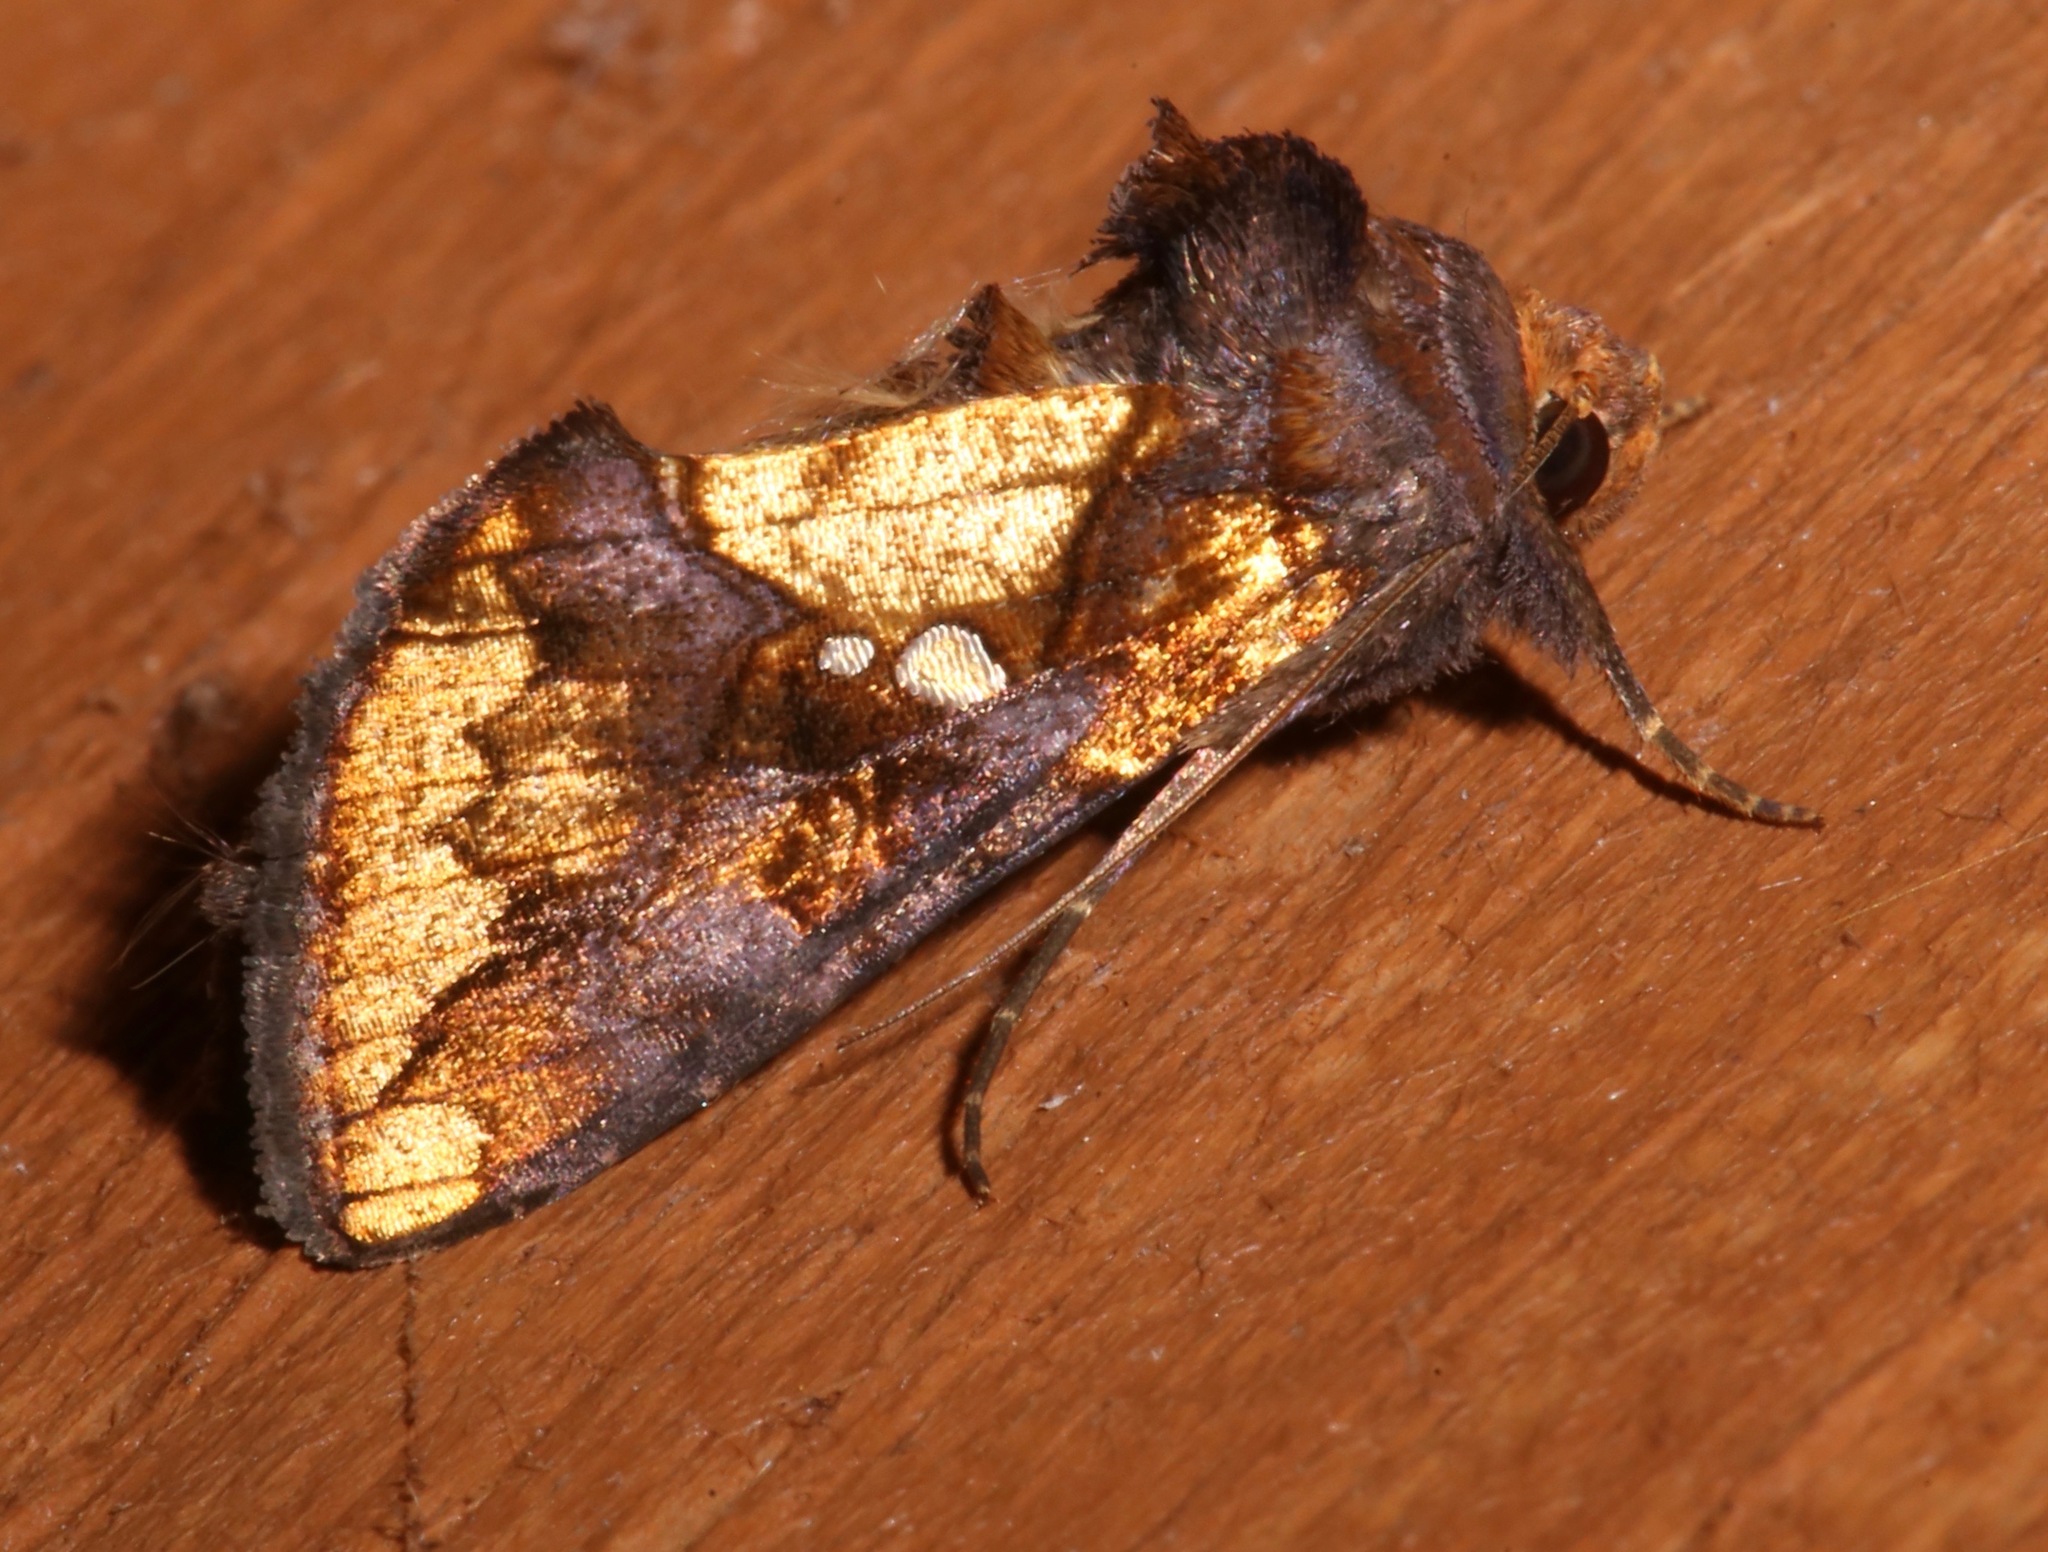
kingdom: Animalia
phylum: Arthropoda
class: Insecta
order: Lepidoptera
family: Noctuidae
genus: Argyrogramma
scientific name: Argyrogramma verruca
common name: Golden looper moth
